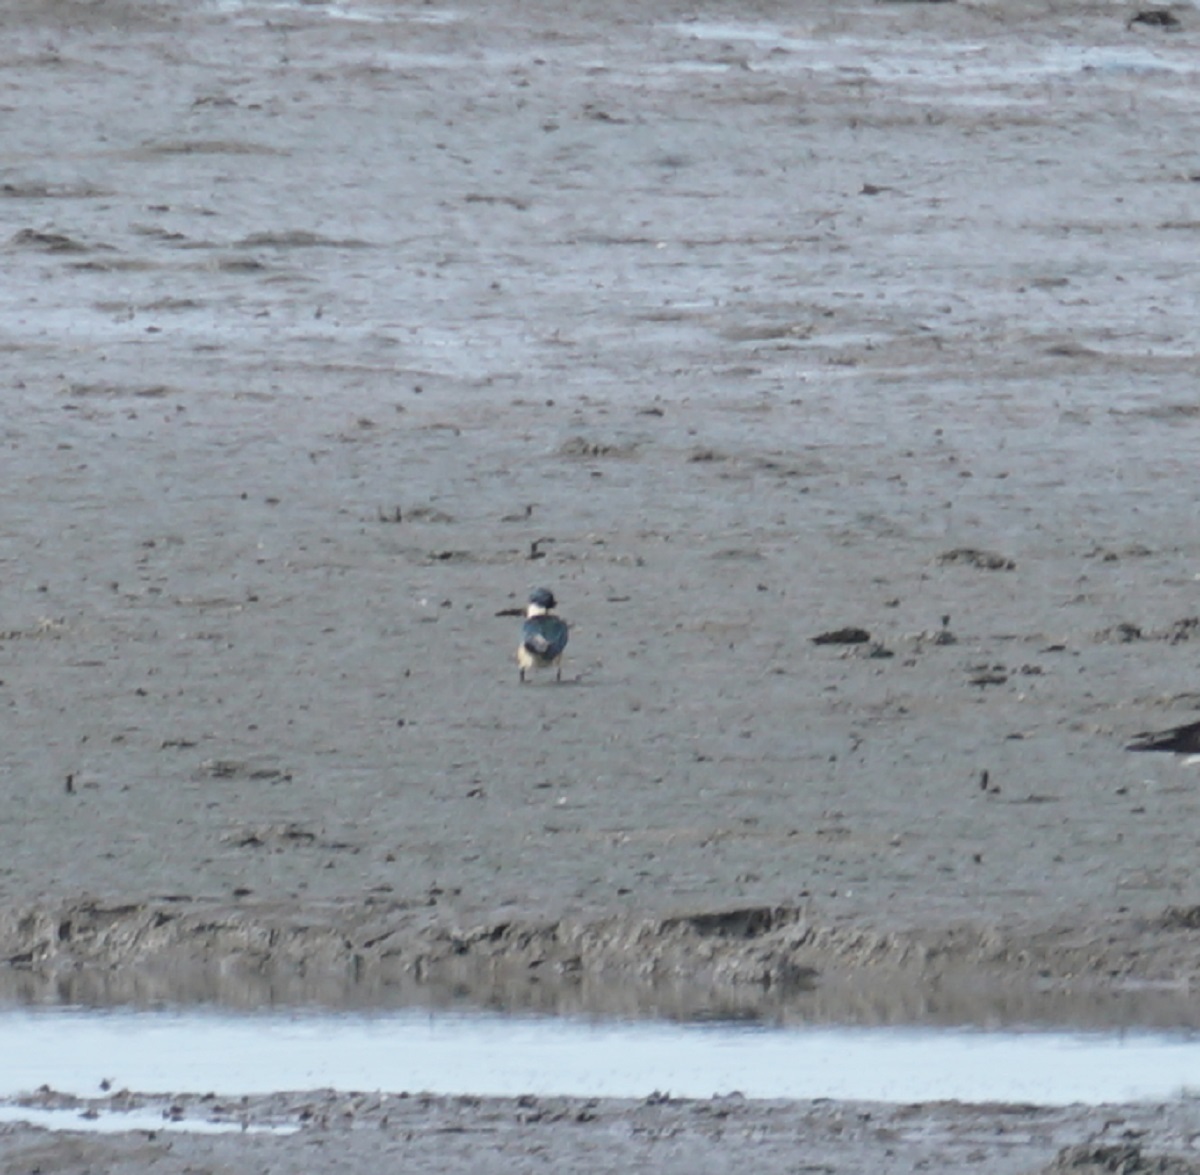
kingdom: Animalia
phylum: Chordata
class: Aves
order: Coraciiformes
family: Alcedinidae
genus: Todiramphus
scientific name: Todiramphus sanctus
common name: Sacred kingfisher
